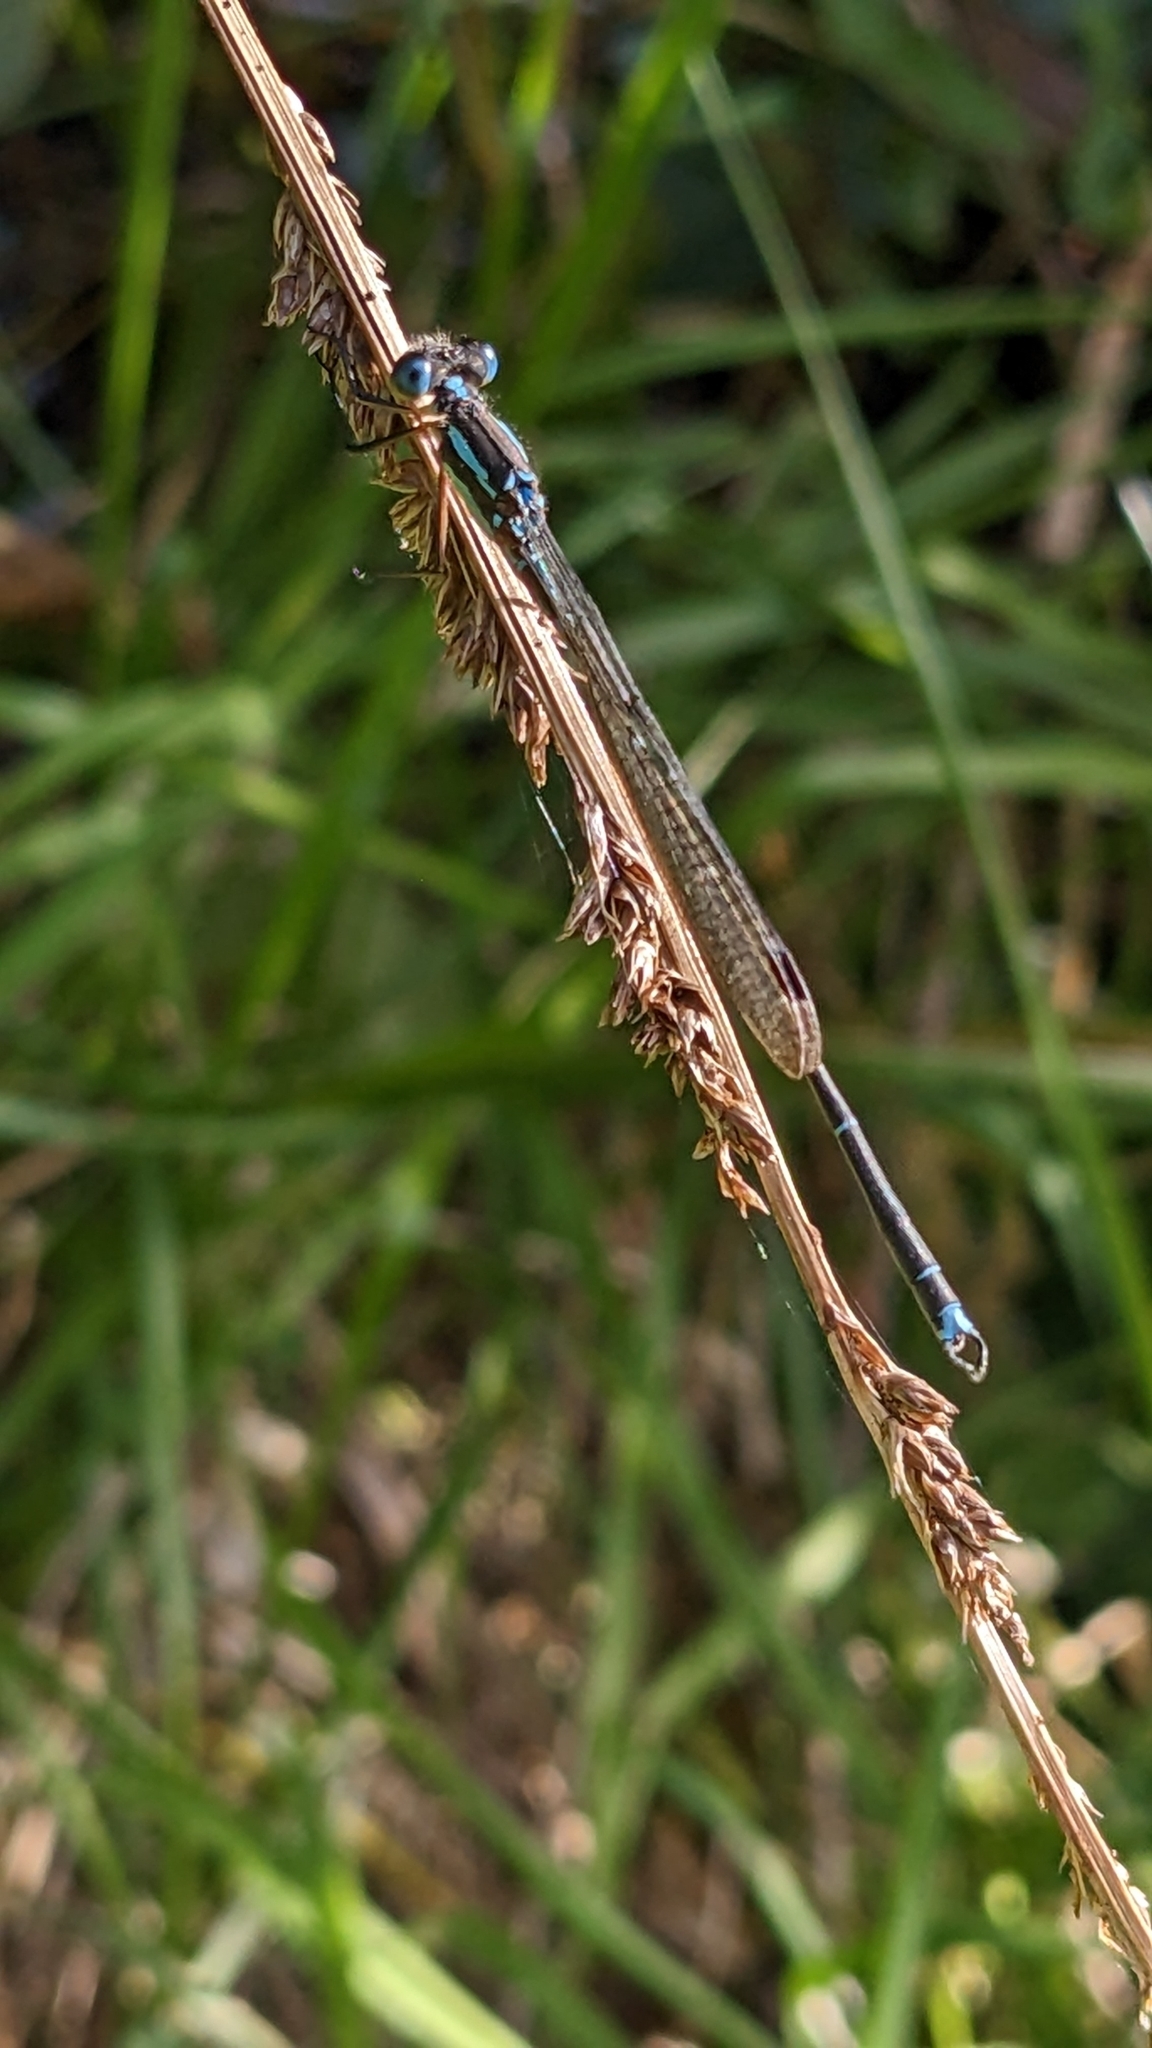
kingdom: Animalia
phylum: Arthropoda
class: Insecta
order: Odonata
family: Lestidae
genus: Austrolestes
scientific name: Austrolestes colensonis
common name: Blue damselfly
